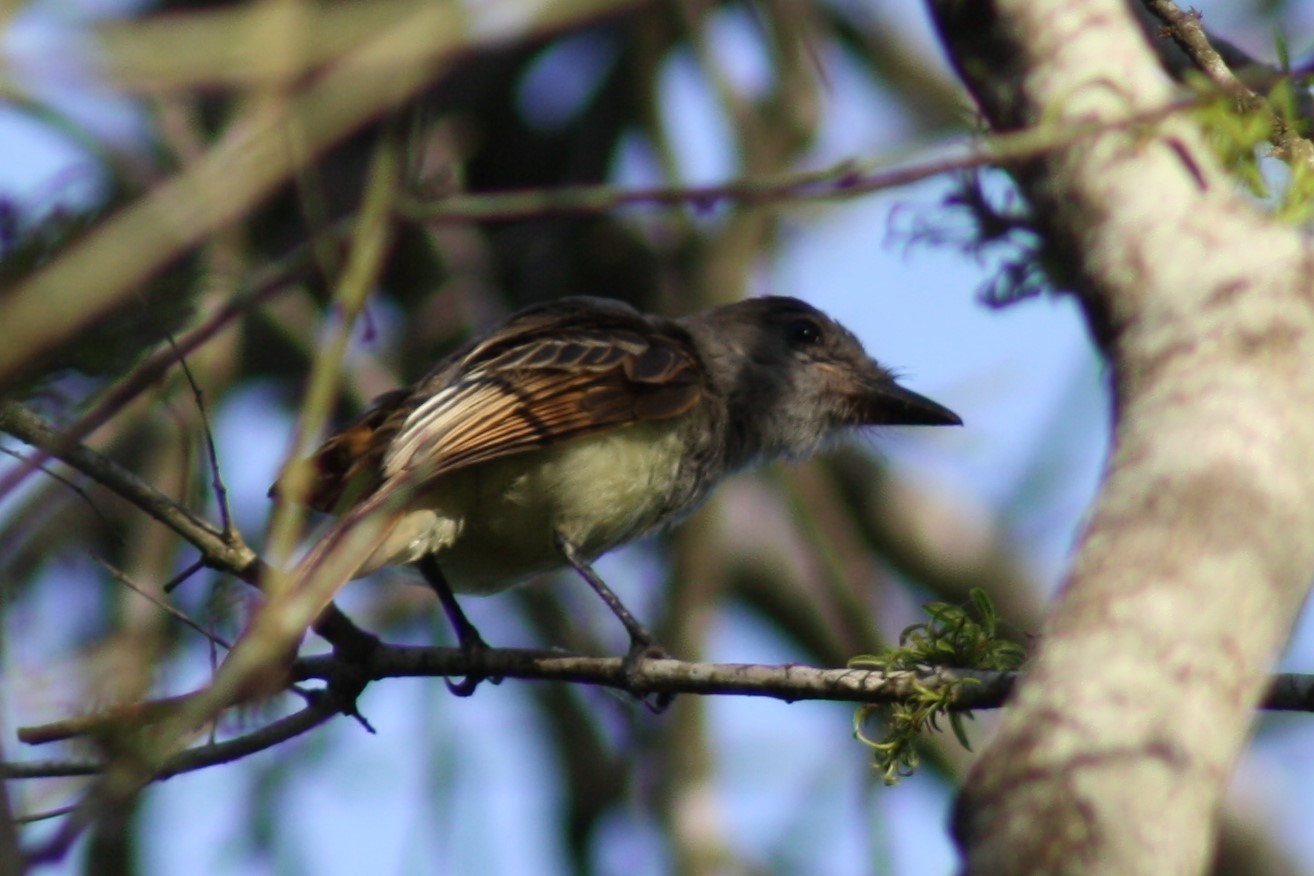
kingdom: Animalia
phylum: Chordata
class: Aves
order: Passeriformes
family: Tyrannidae
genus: Myiarchus
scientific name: Myiarchus crinitus
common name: Great crested flycatcher
